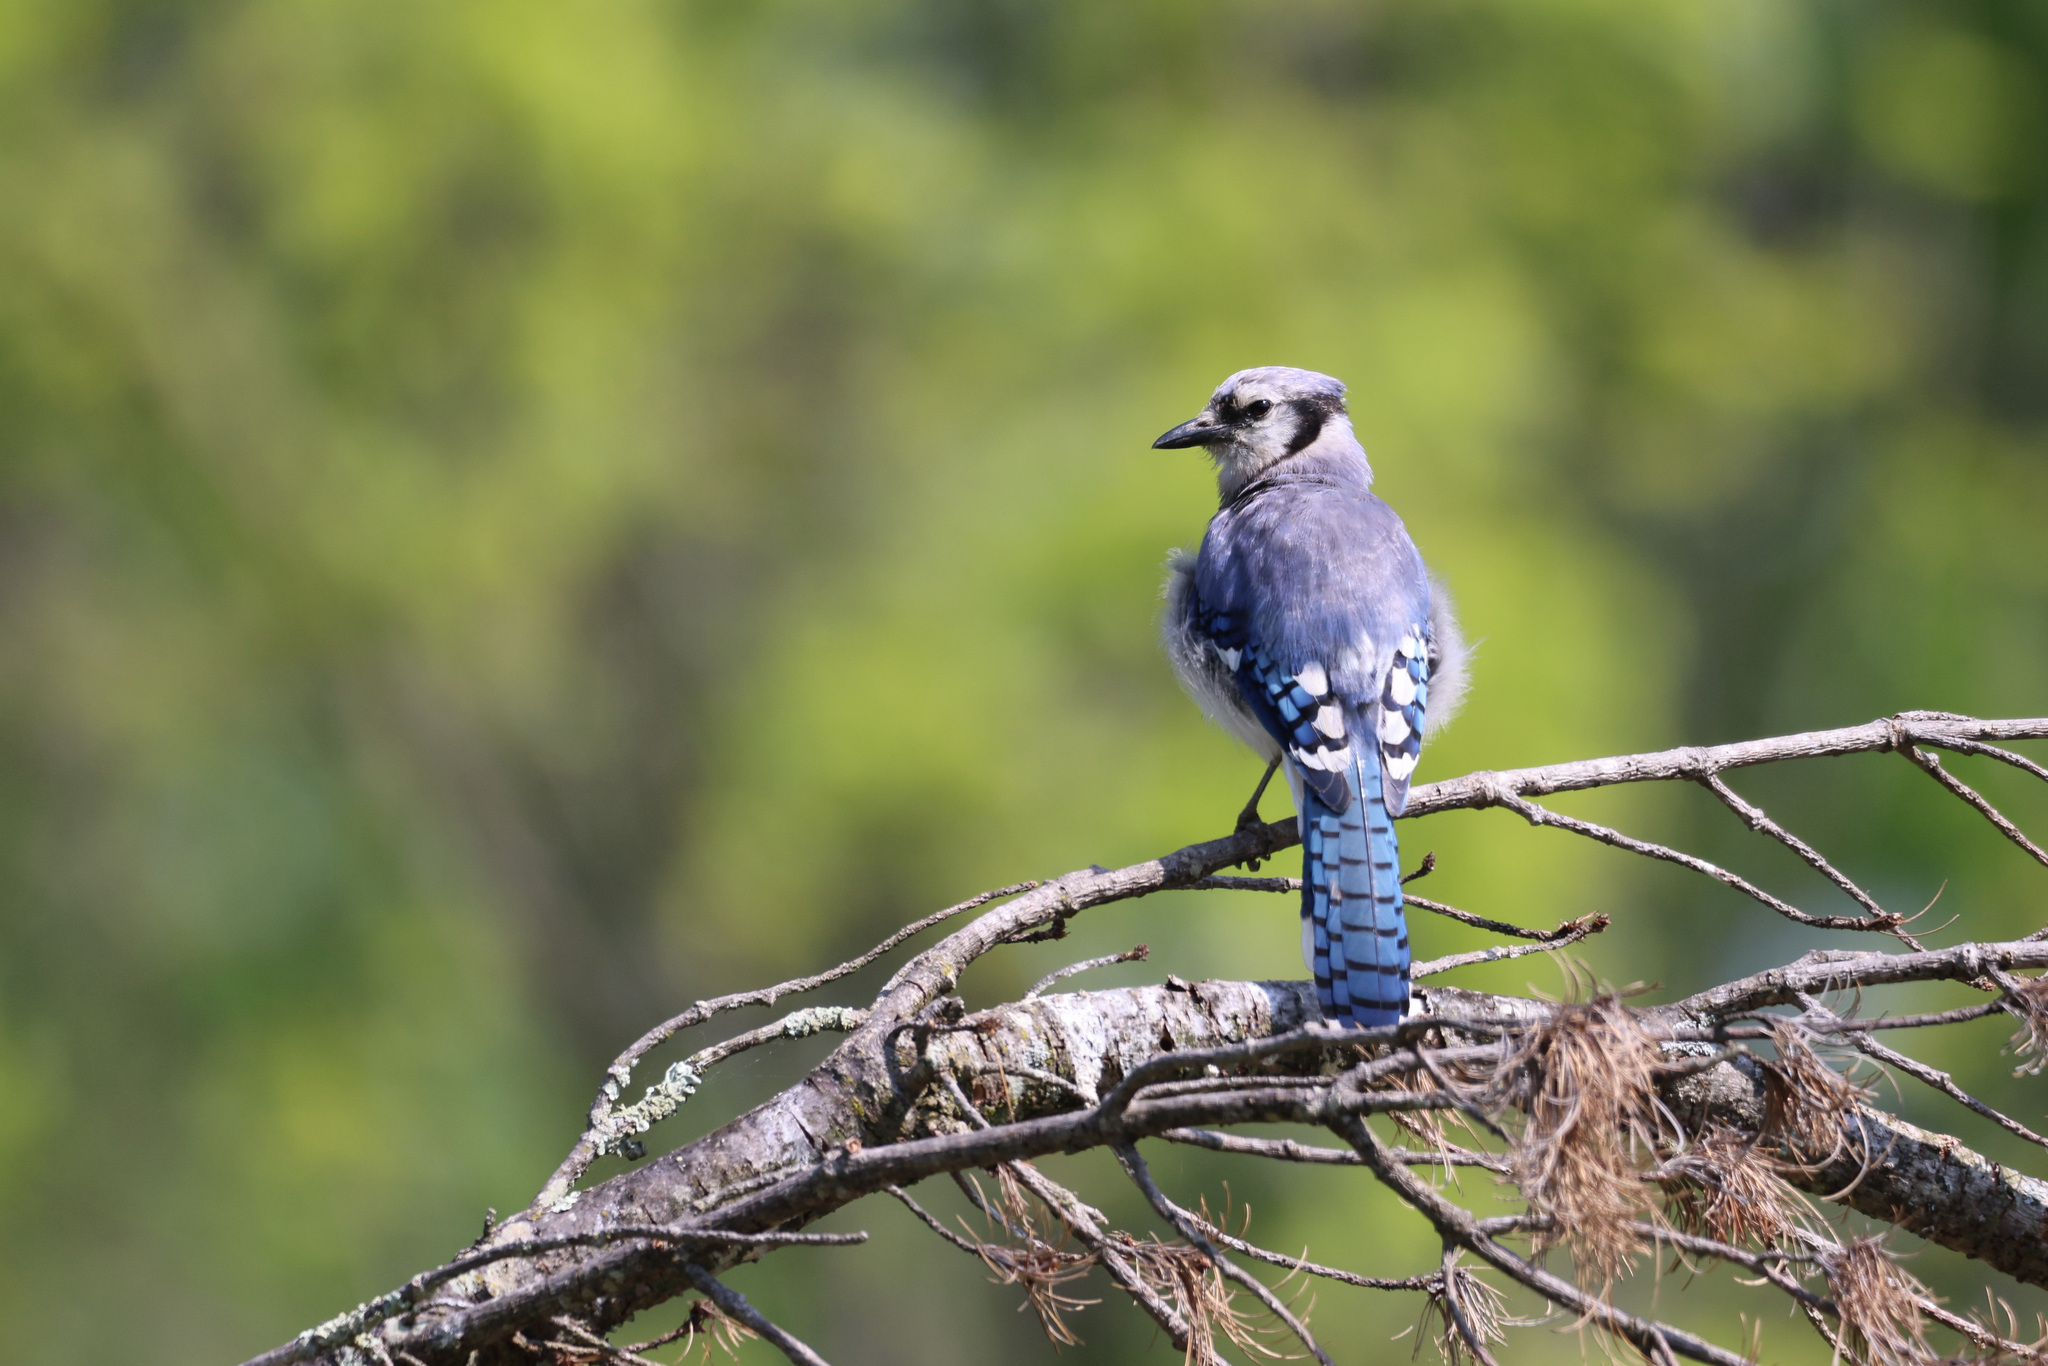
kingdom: Animalia
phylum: Chordata
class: Aves
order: Passeriformes
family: Corvidae
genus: Cyanocitta
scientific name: Cyanocitta cristata
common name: Blue jay
